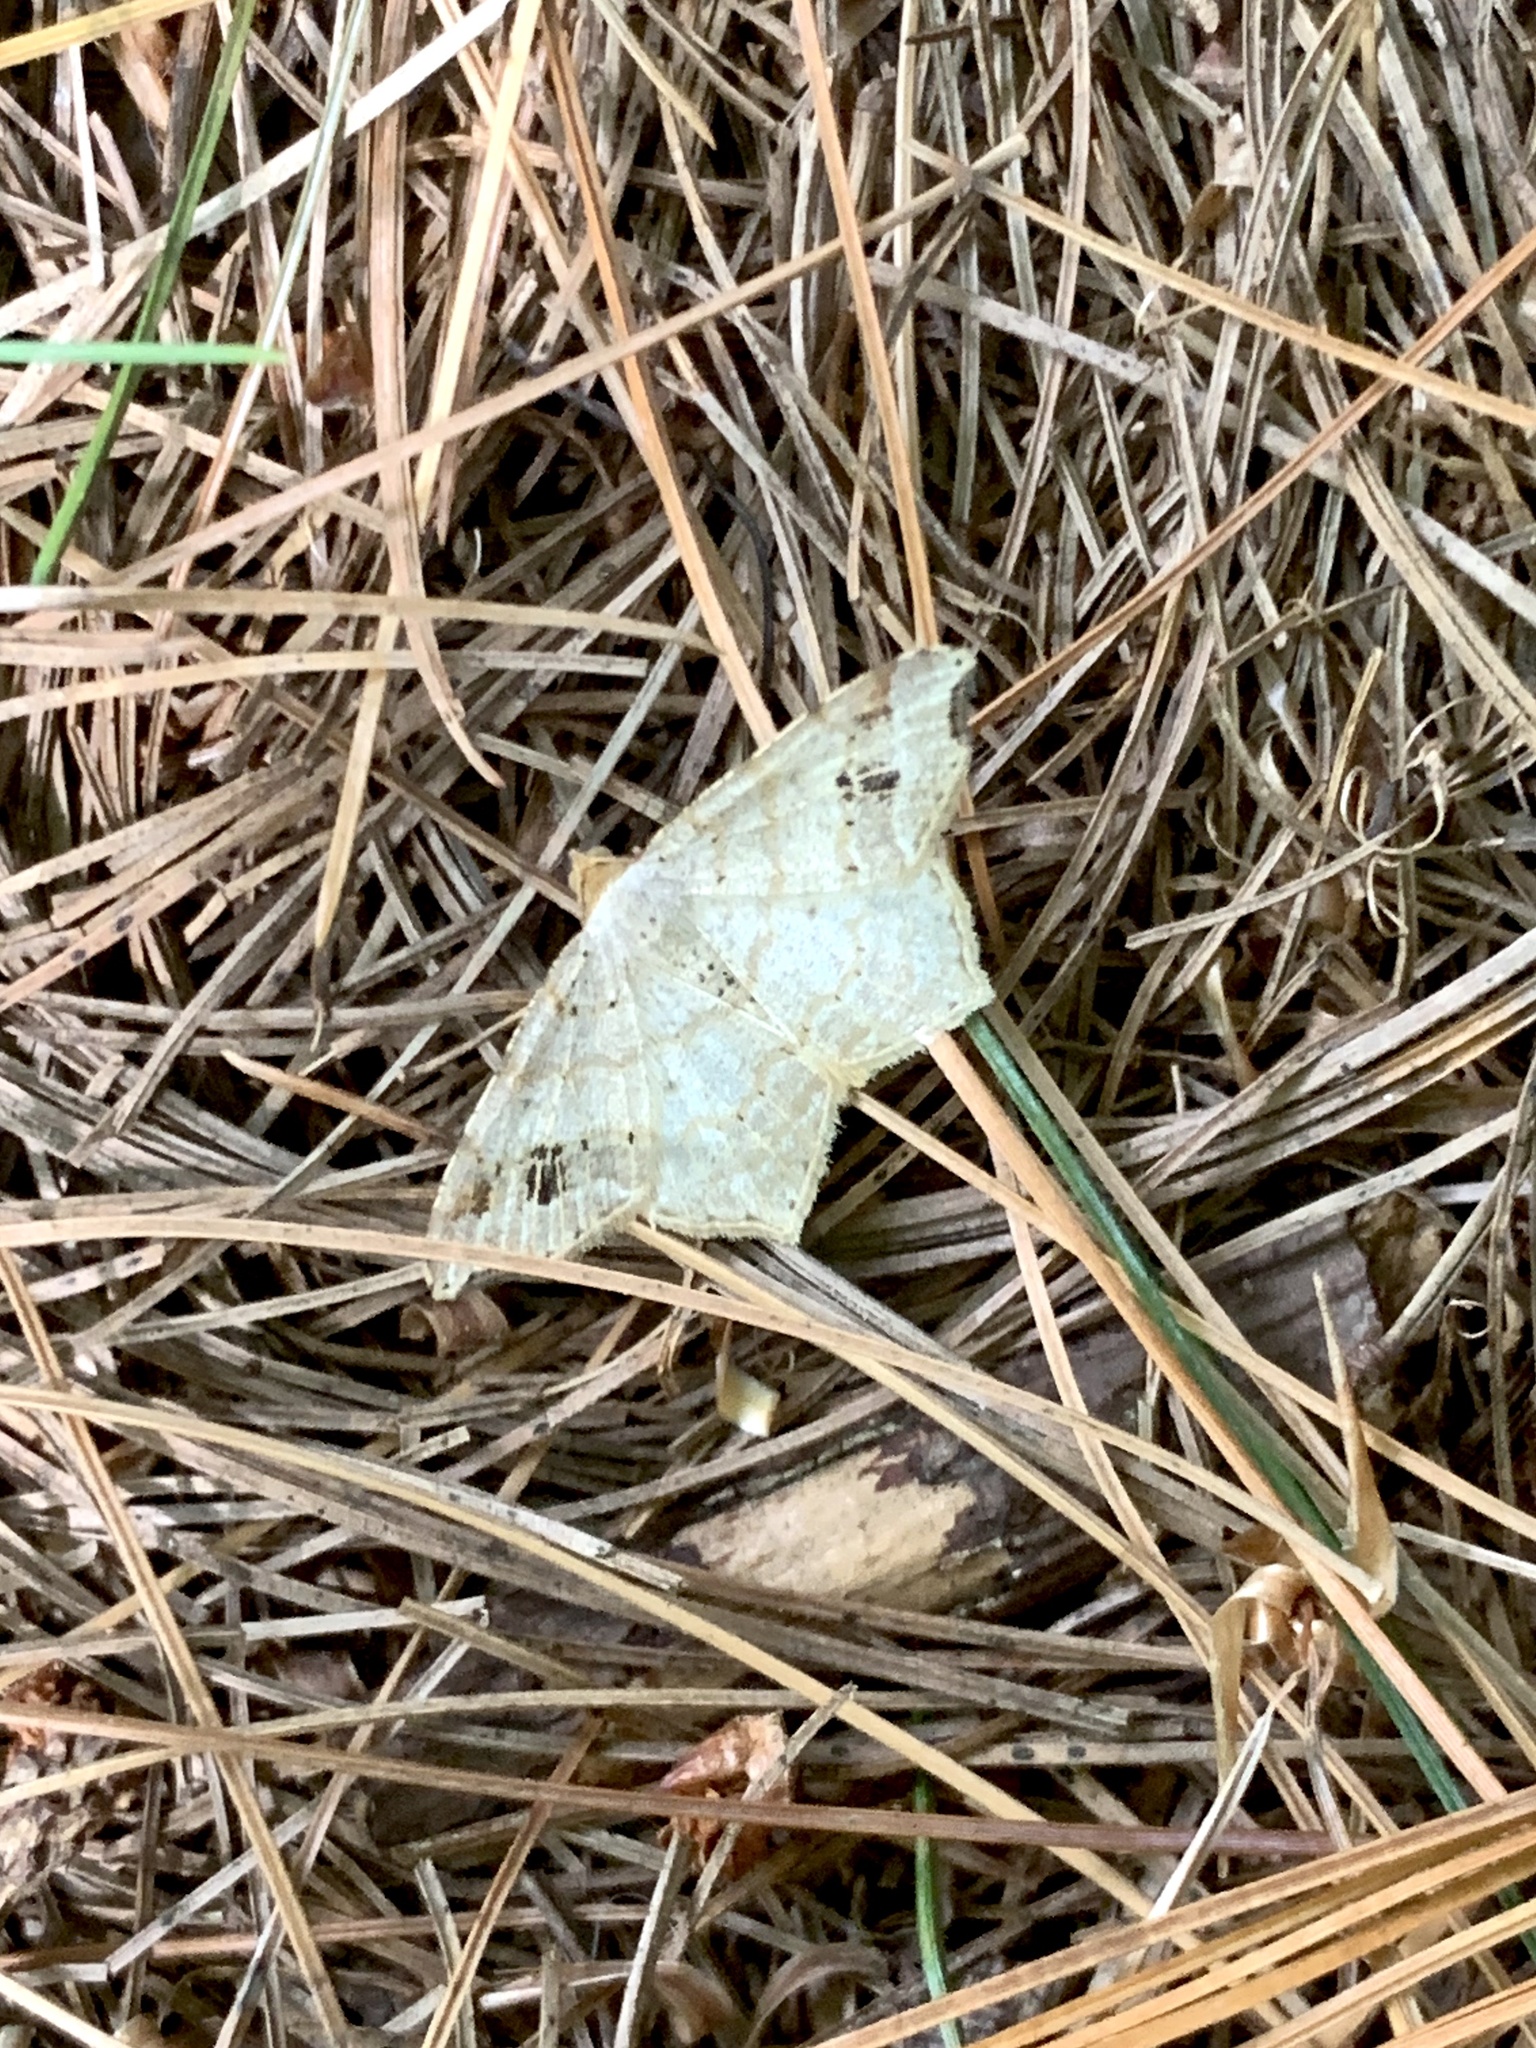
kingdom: Animalia
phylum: Arthropoda
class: Insecta
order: Lepidoptera
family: Geometridae
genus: Macaria
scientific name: Macaria aemulataria
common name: Common angle
